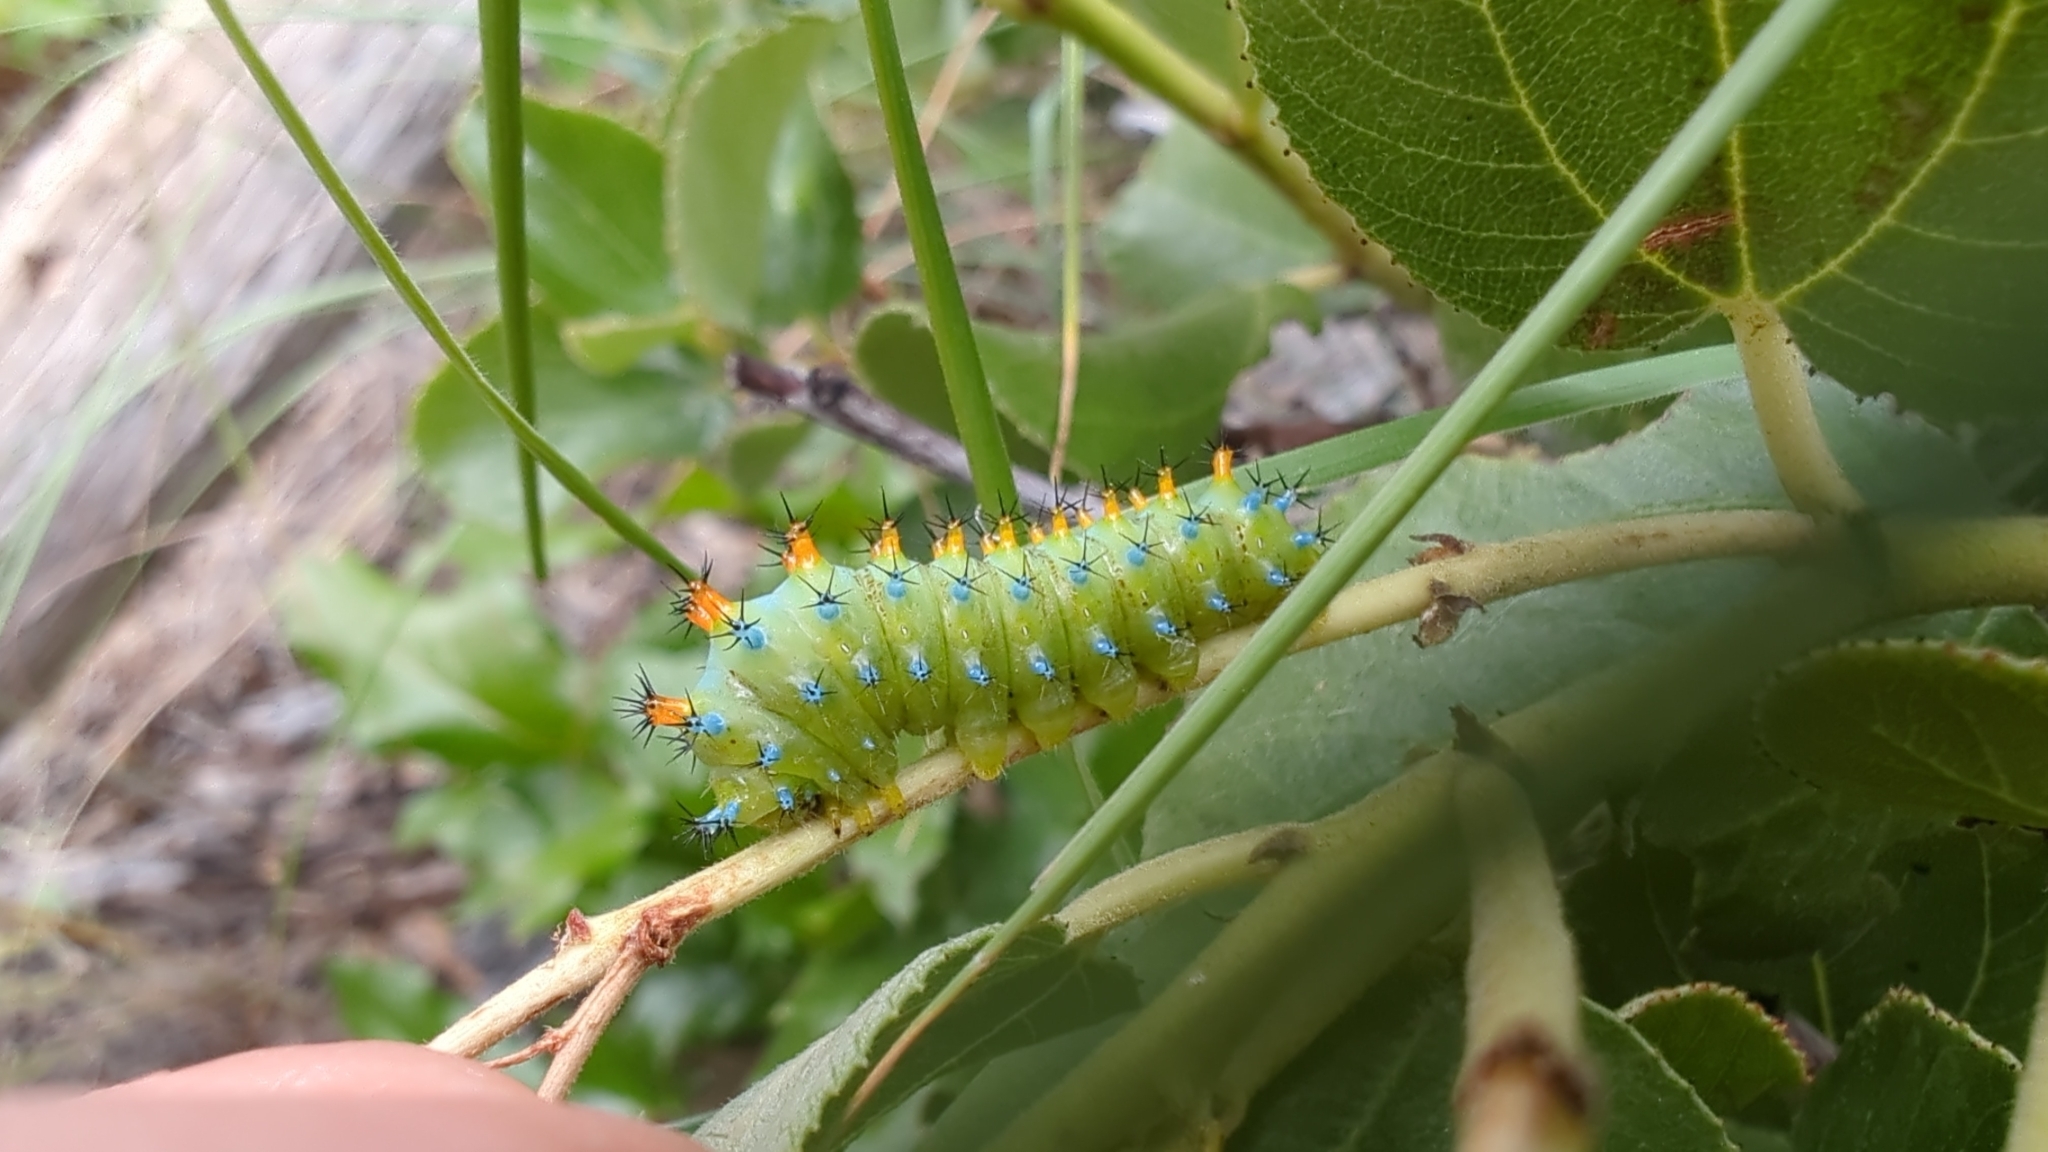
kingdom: Animalia
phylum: Arthropoda
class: Insecta
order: Lepidoptera
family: Saturniidae
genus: Hyalophora
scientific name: Hyalophora euryalus
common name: Ceanothus silkmoth
